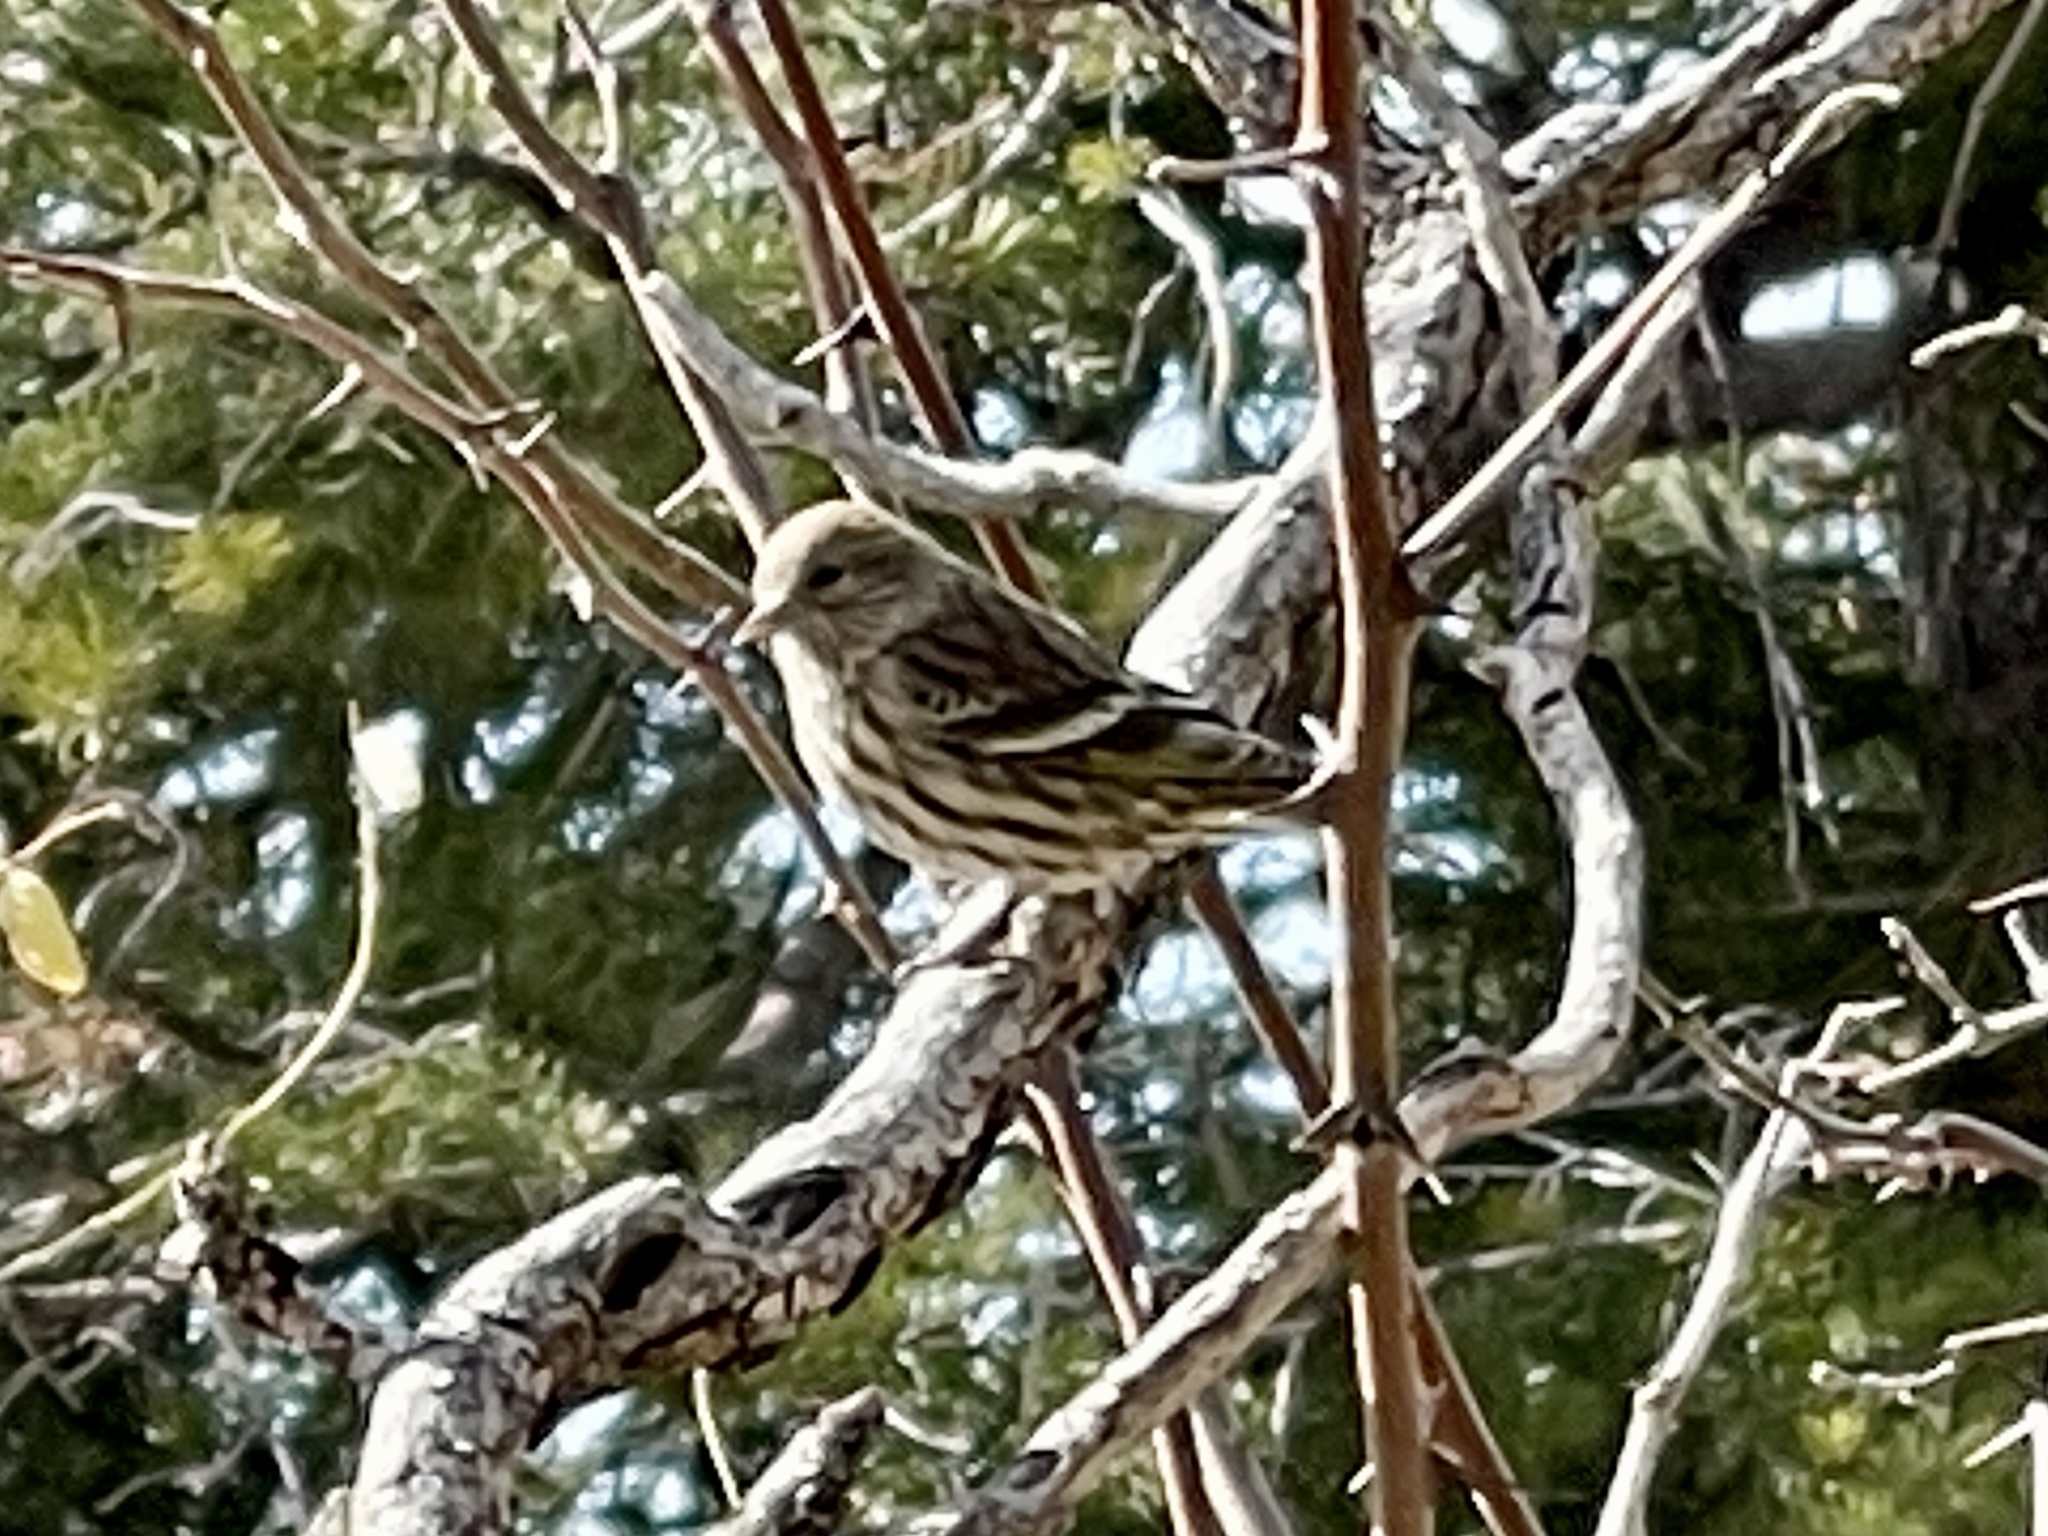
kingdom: Animalia
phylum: Chordata
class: Aves
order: Passeriformes
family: Fringillidae
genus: Spinus
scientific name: Spinus pinus
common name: Pine siskin
